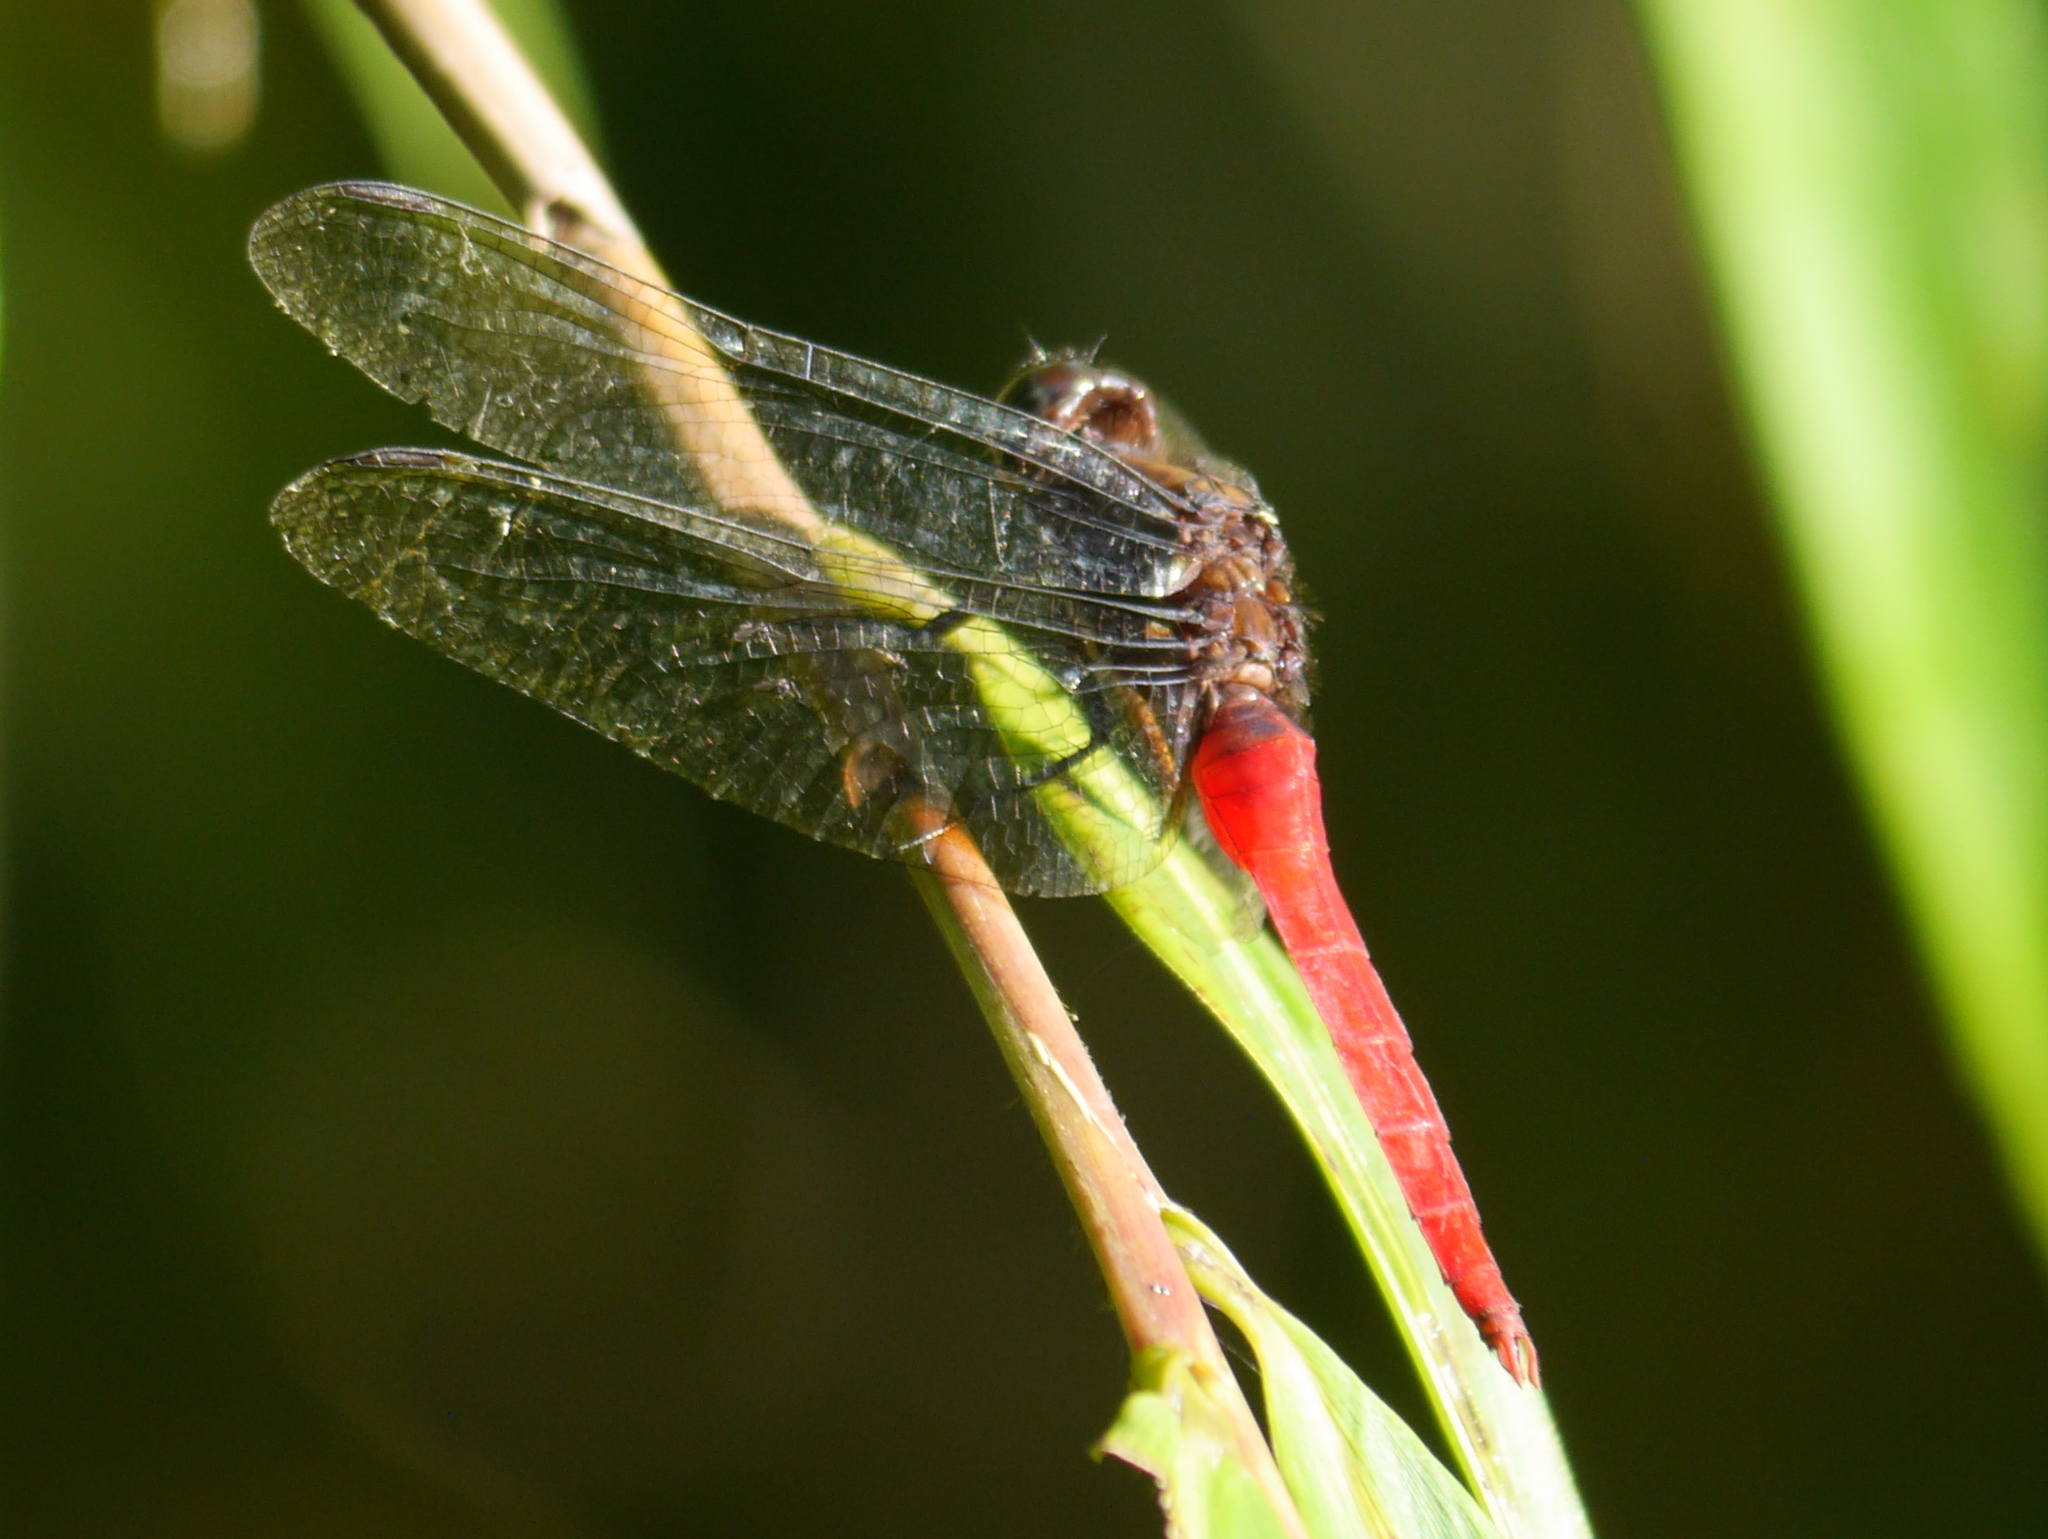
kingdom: Animalia
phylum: Arthropoda
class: Insecta
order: Odonata
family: Libellulidae
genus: Orthetrum
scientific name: Orthetrum chrysis
